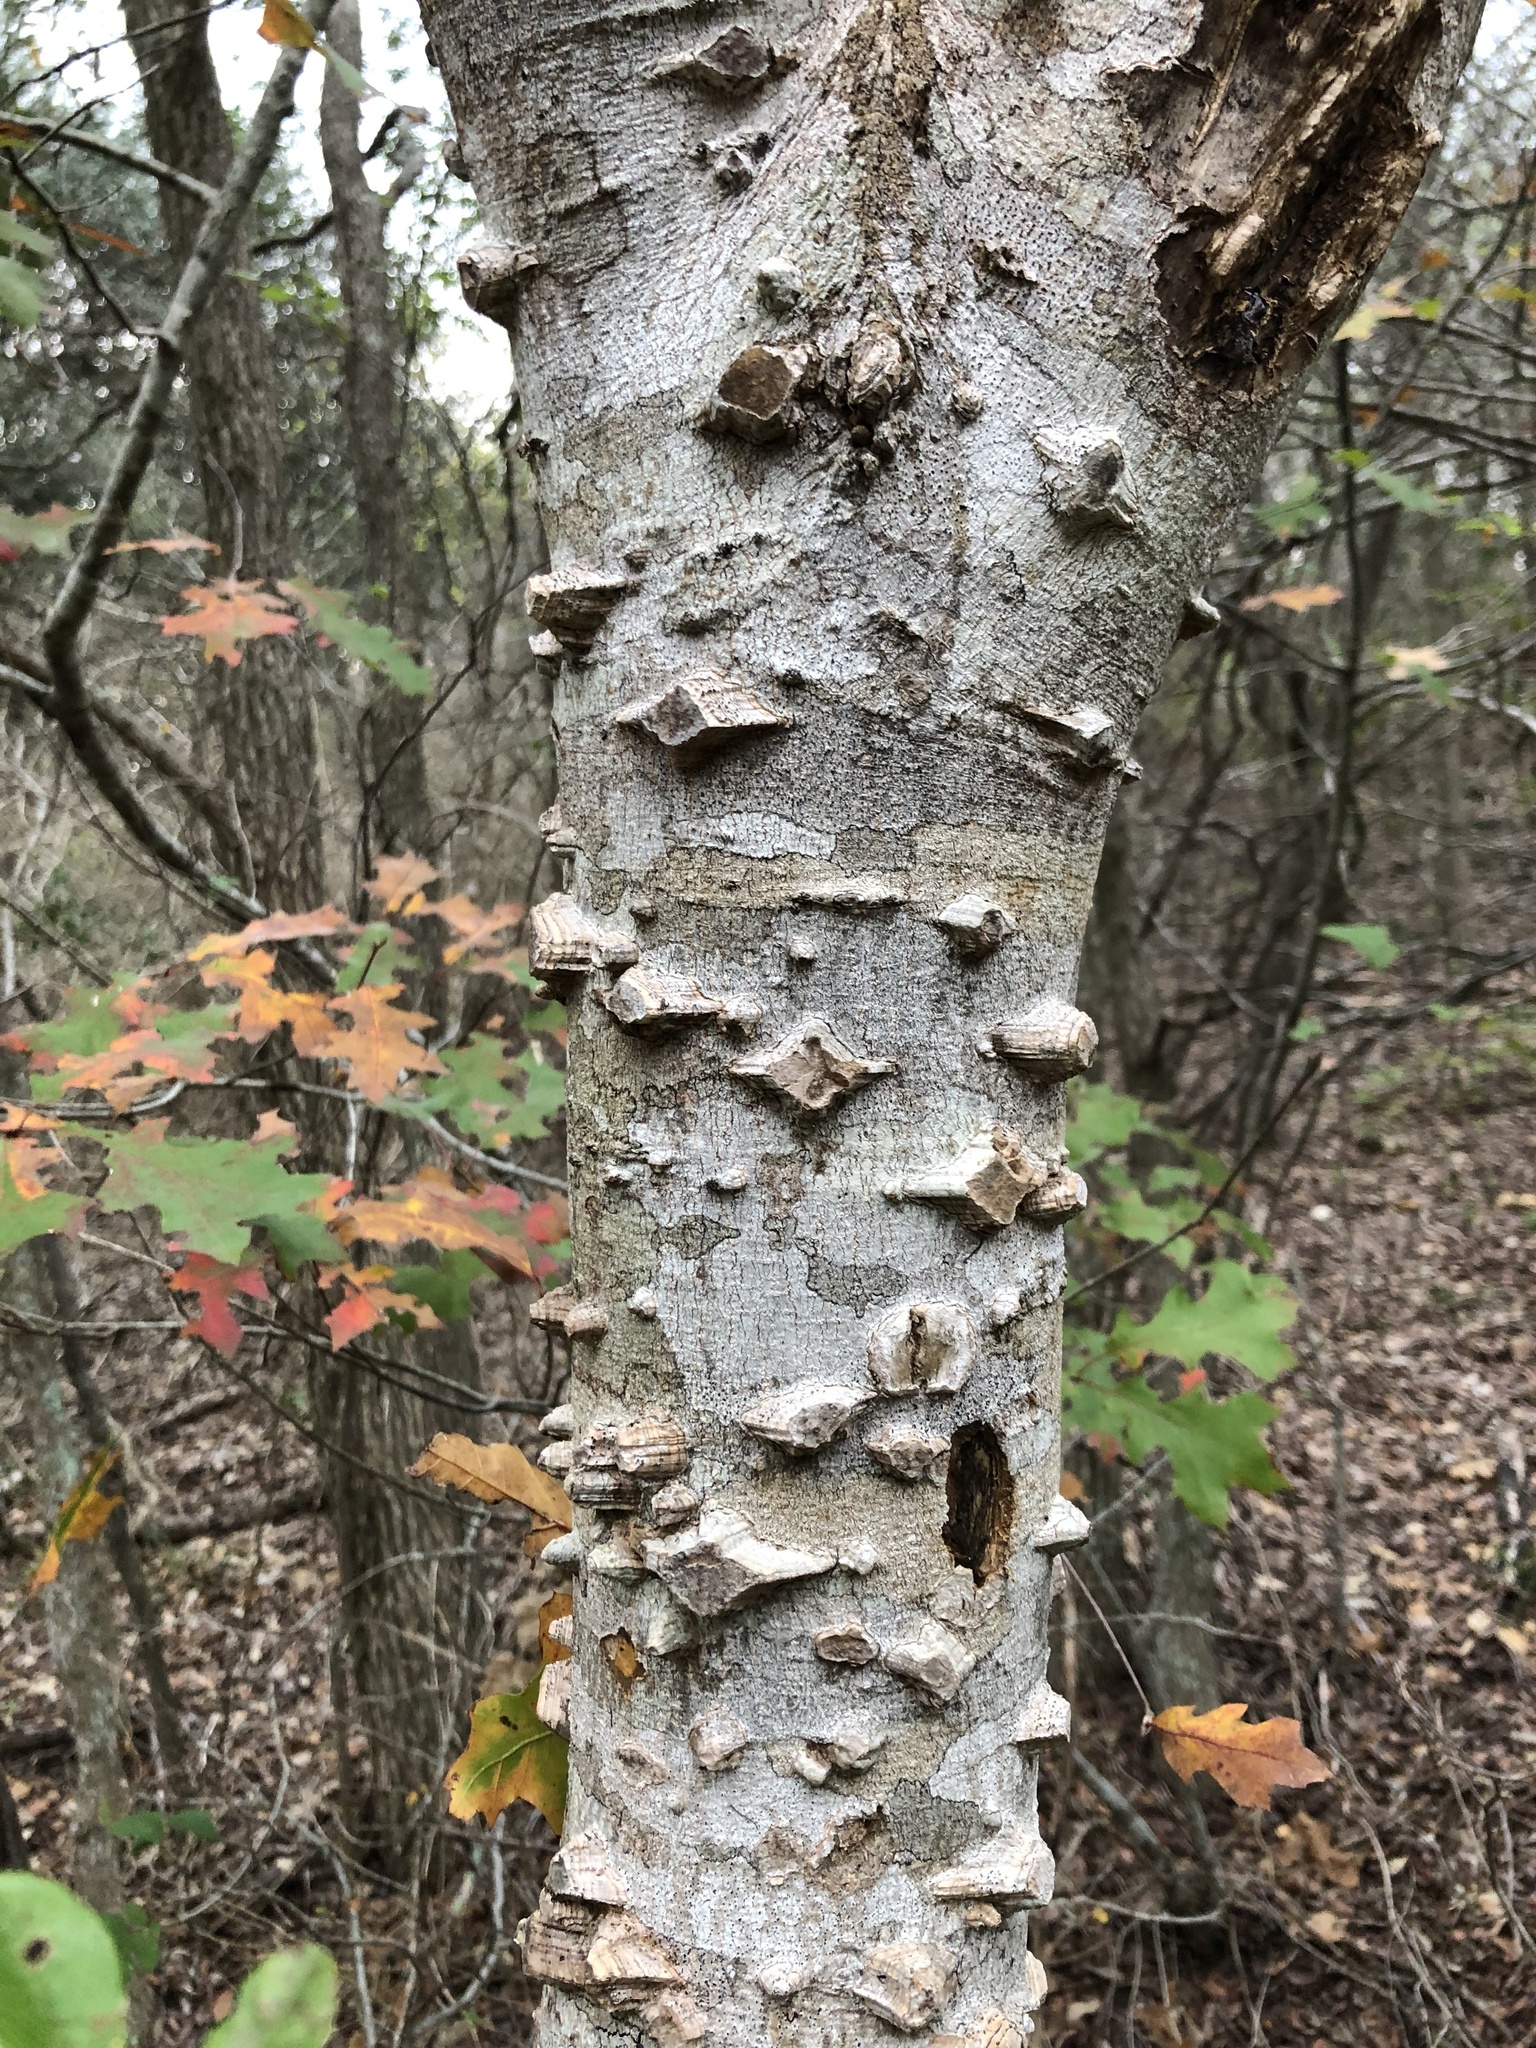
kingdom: Plantae
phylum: Tracheophyta
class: Magnoliopsida
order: Sapindales
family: Rutaceae
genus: Zanthoxylum
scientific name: Zanthoxylum clava-herculis
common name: Hercules'-club
